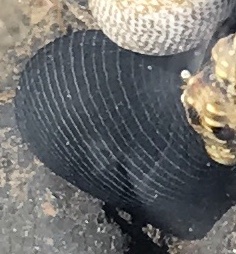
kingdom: Animalia
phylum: Mollusca
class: Gastropoda
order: Cycloneritida
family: Neritidae
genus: Nerita
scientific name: Nerita picea
